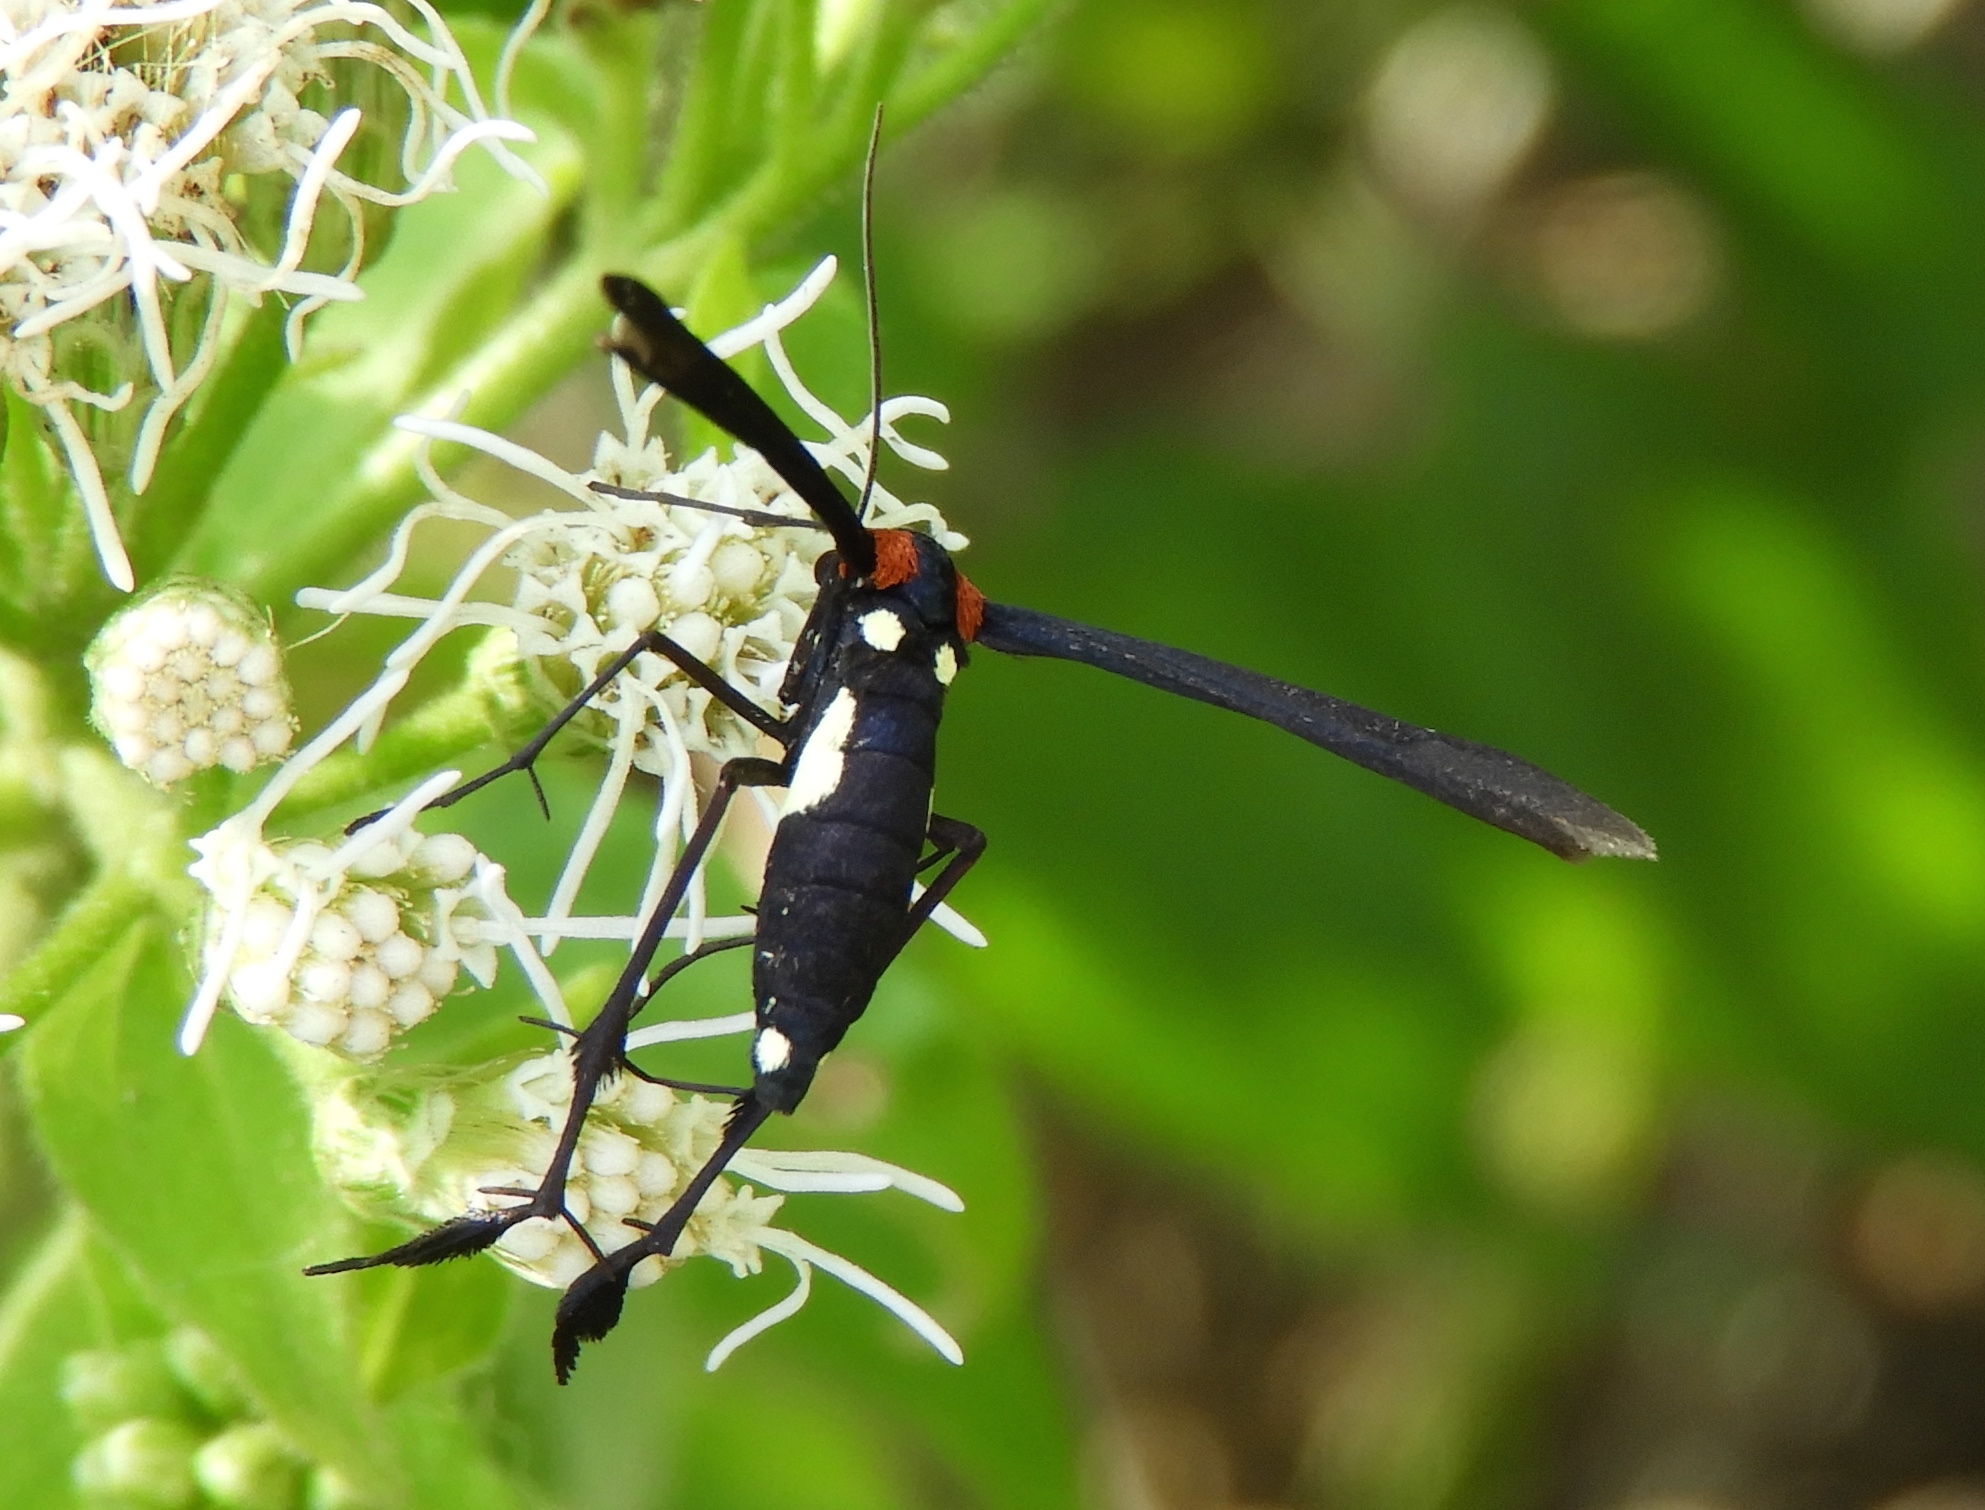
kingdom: Animalia
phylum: Arthropoda
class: Insecta
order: Lepidoptera
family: Pterophoridae
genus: Hellinsia
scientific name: Hellinsia chamelai
